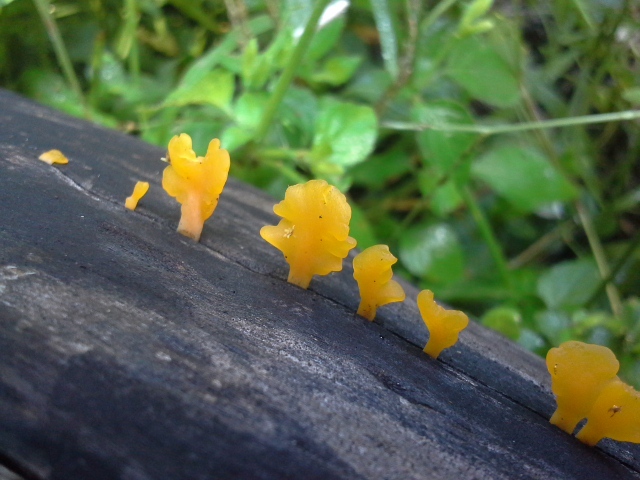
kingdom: Fungi
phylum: Basidiomycota
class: Dacrymycetes
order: Dacrymycetales
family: Dacrymycetaceae
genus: Dacrymyces
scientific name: Dacrymyces spathularius
